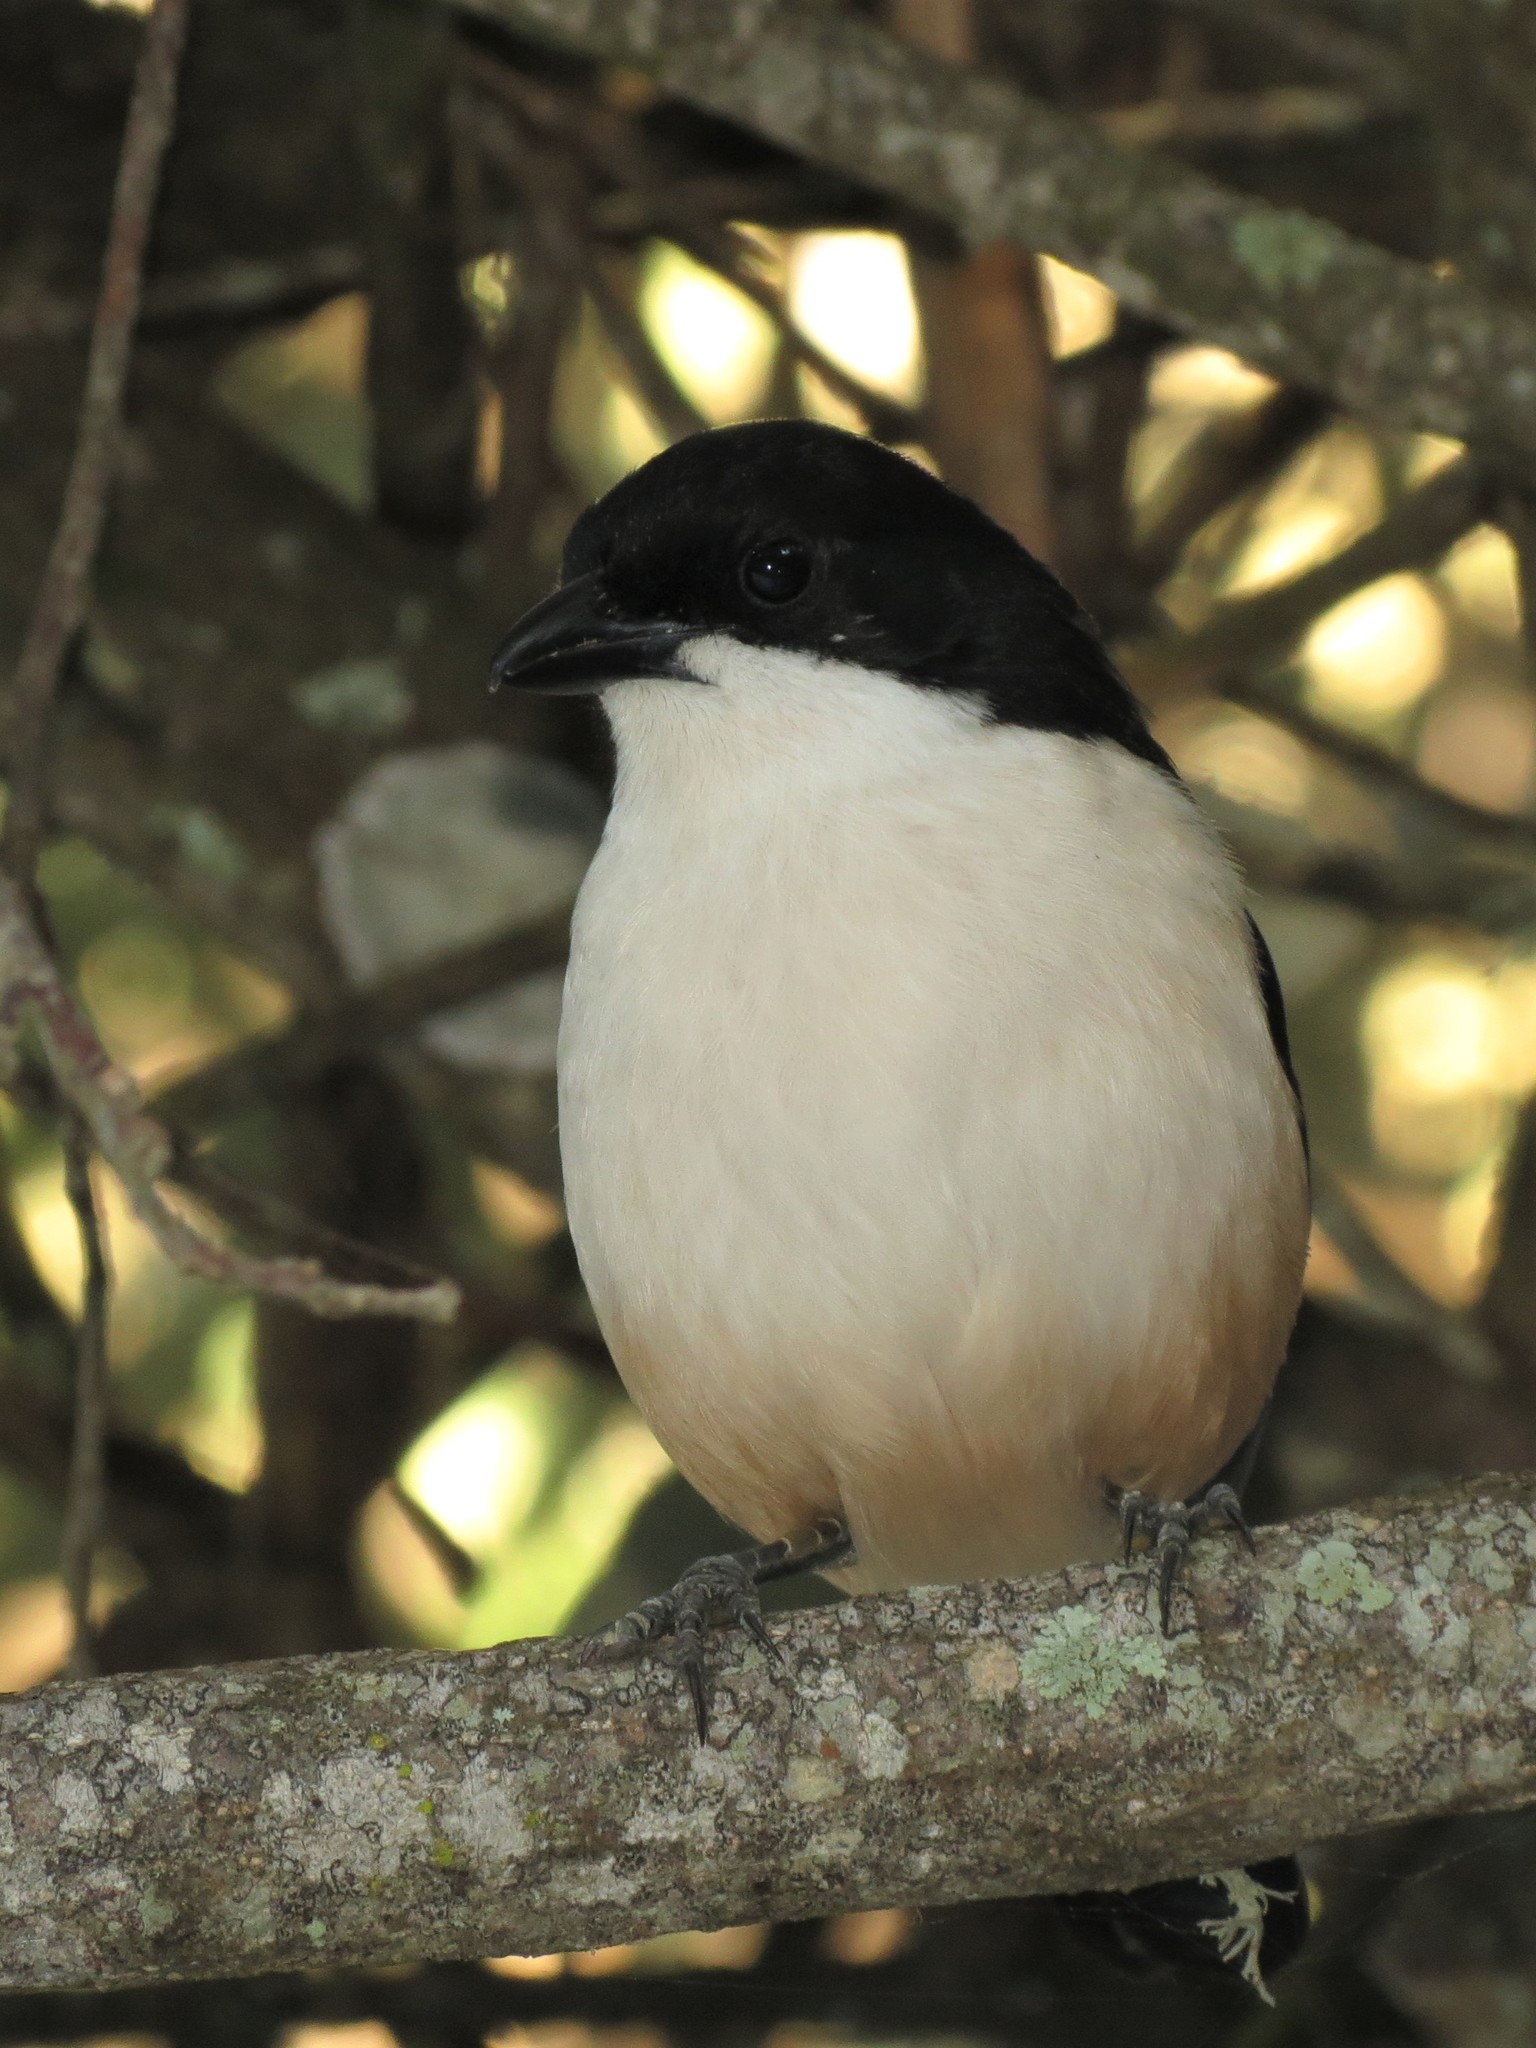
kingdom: Animalia
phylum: Chordata
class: Aves
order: Passeriformes
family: Malaconotidae
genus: Laniarius
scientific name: Laniarius ferrugineus
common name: Southern boubou
